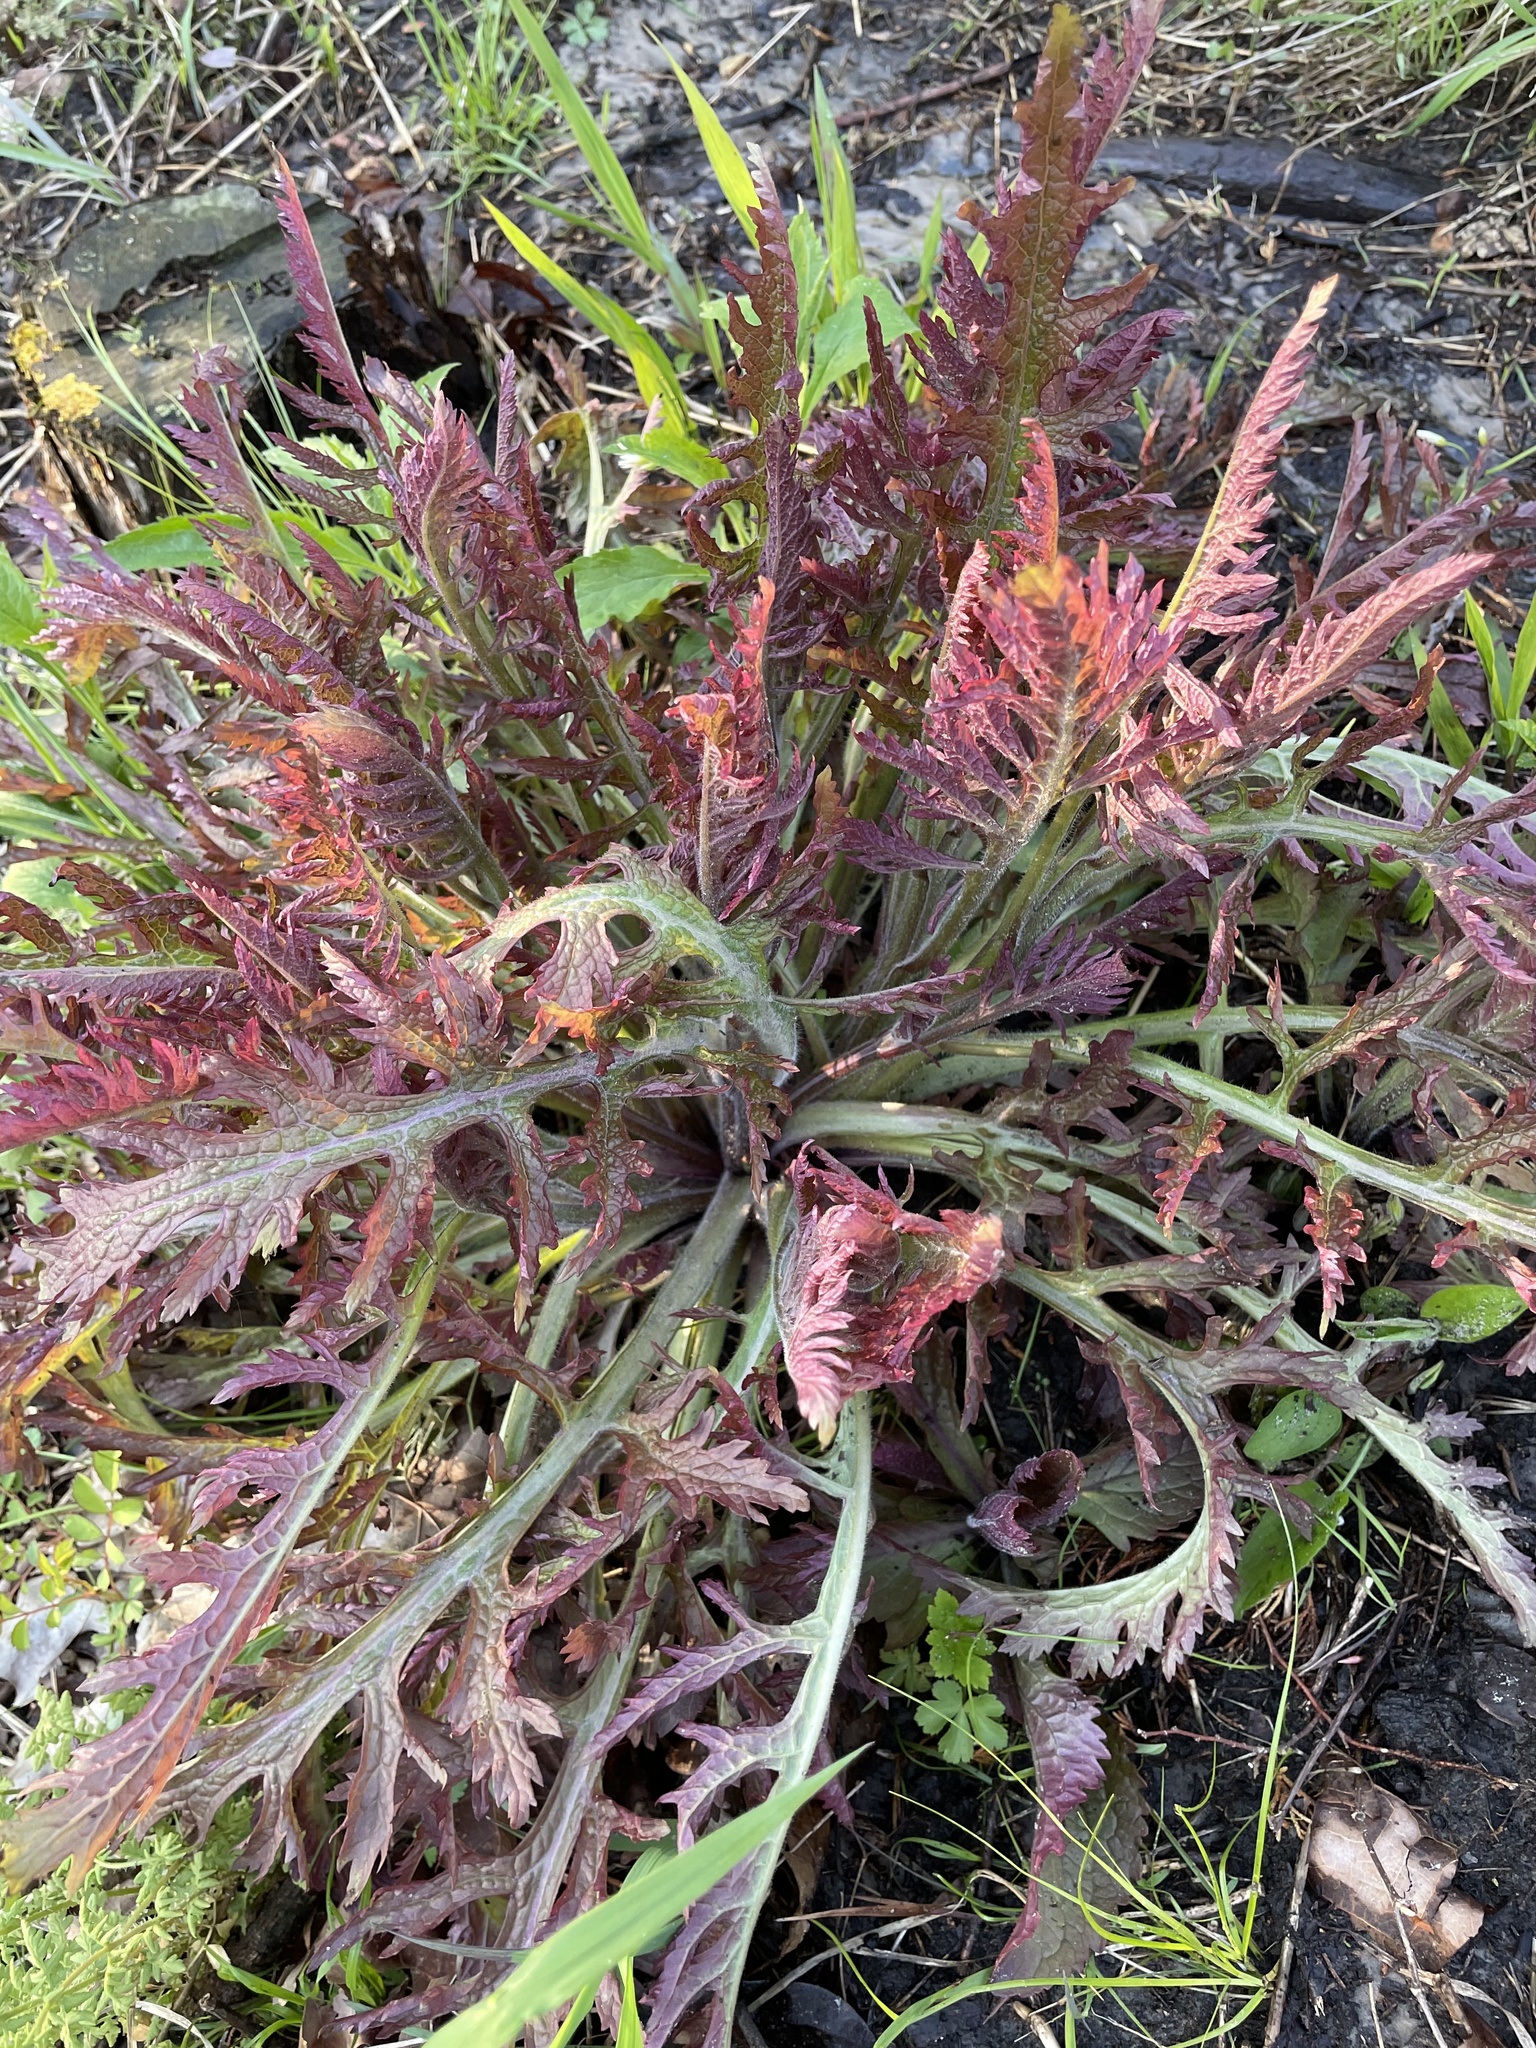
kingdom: Plantae
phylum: Tracheophyta
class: Magnoliopsida
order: Lamiales
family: Orobanchaceae
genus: Dasistoma
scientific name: Dasistoma macrophyllum
